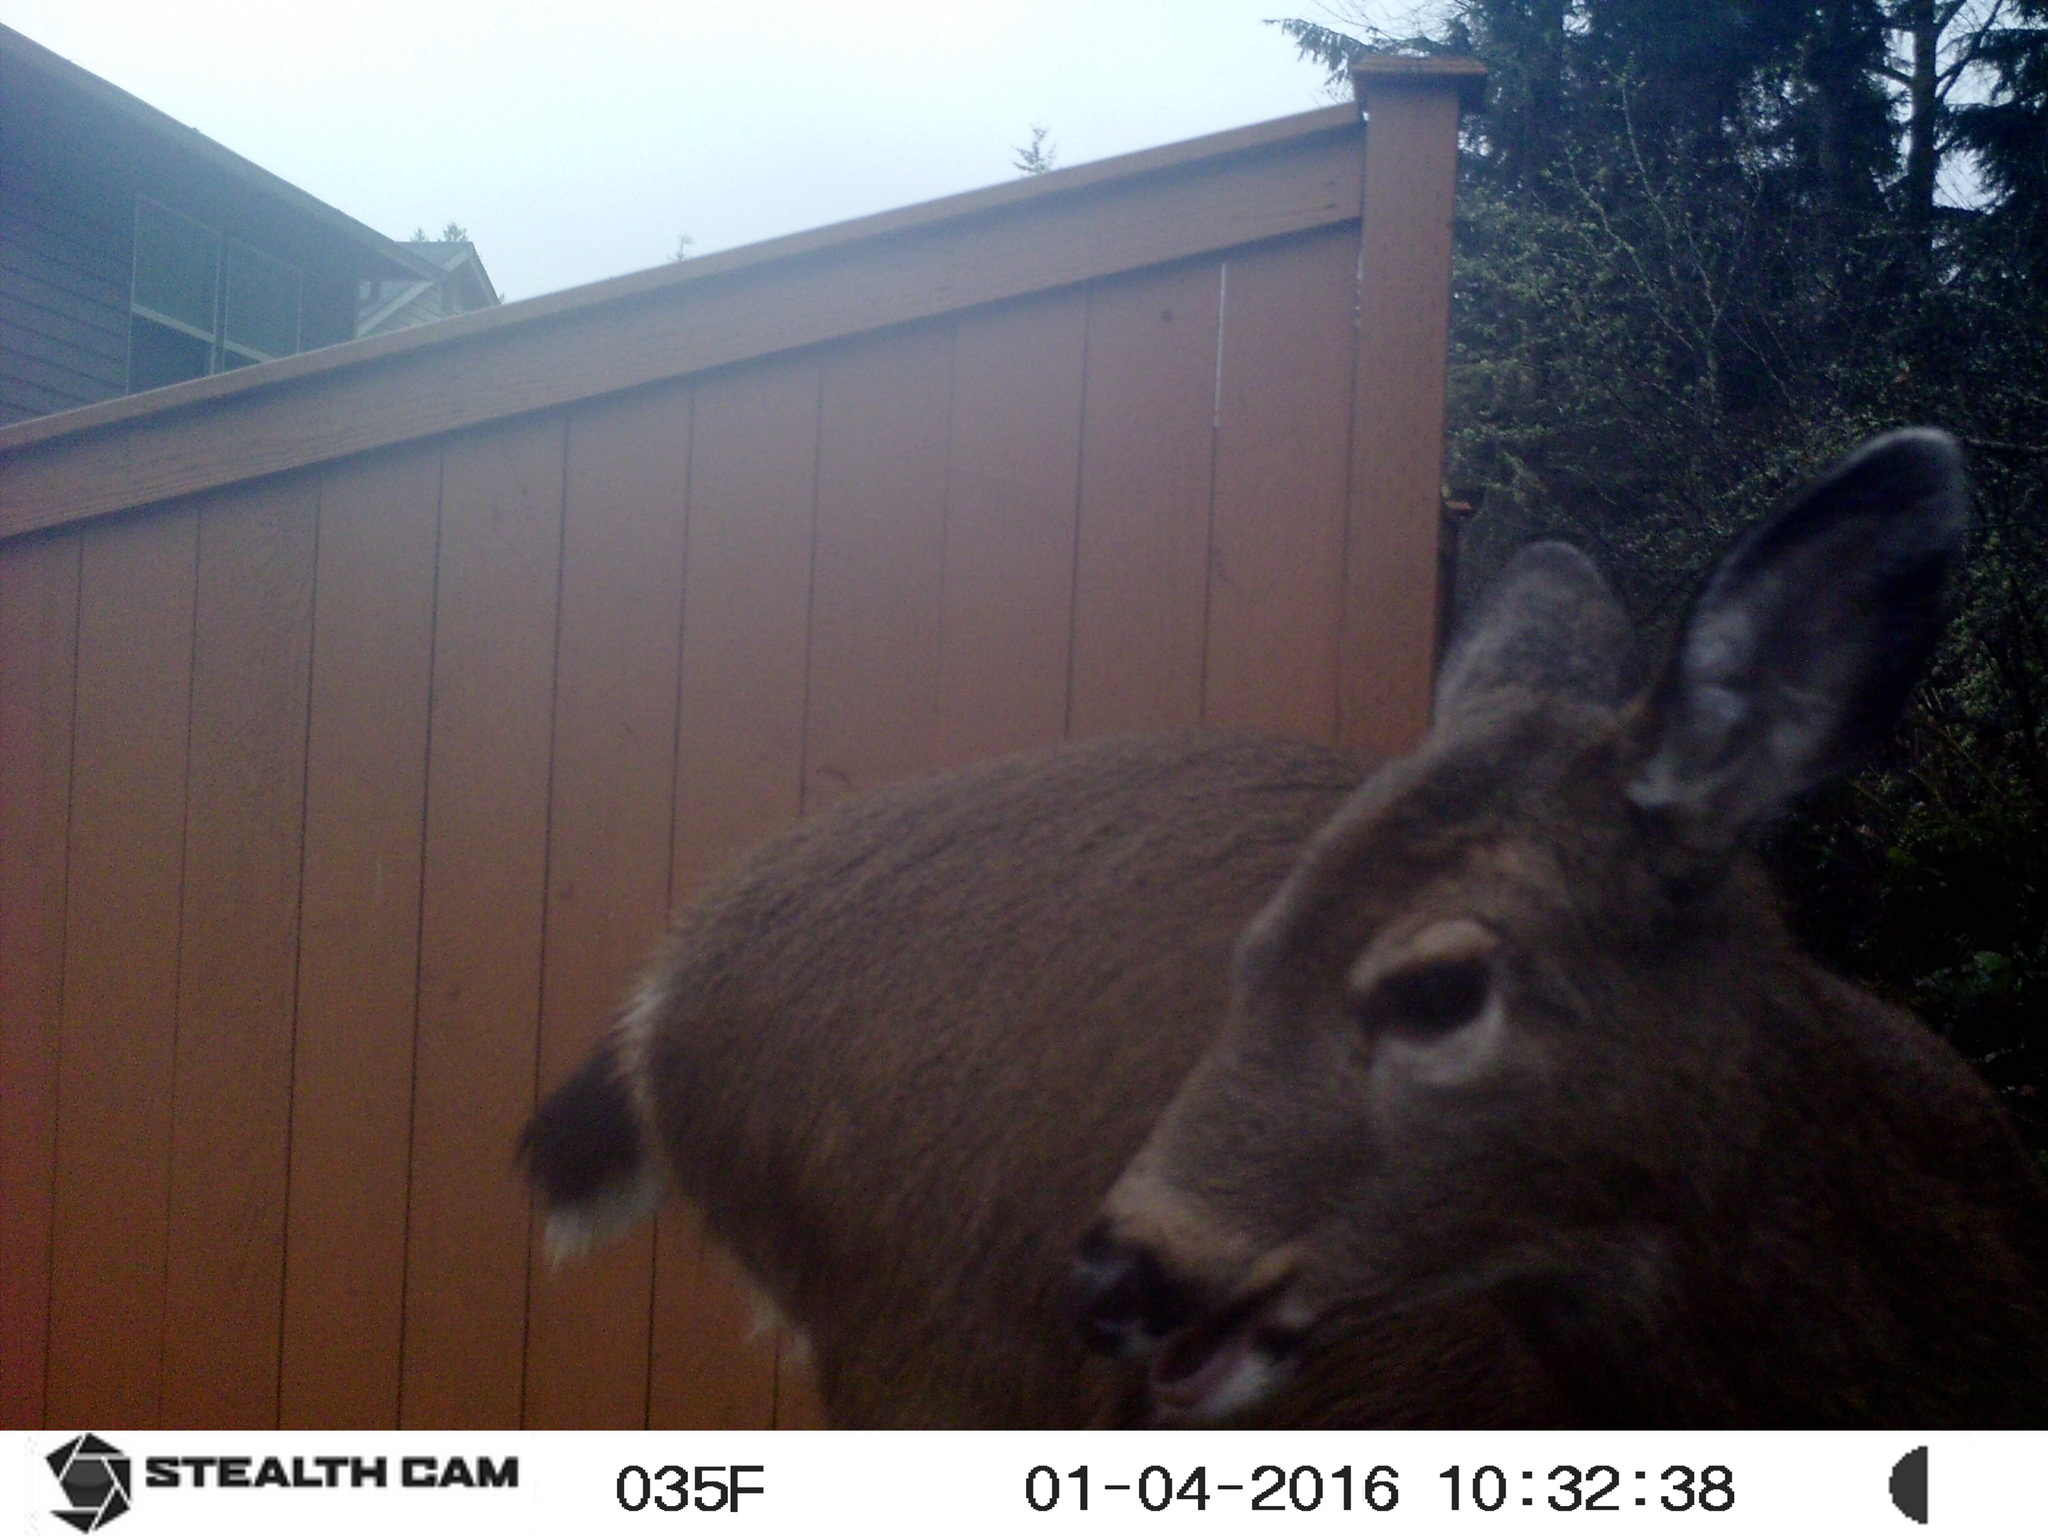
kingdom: Animalia
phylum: Chordata
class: Mammalia
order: Artiodactyla
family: Cervidae
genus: Odocoileus
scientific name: Odocoileus hemionus
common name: Mule deer
